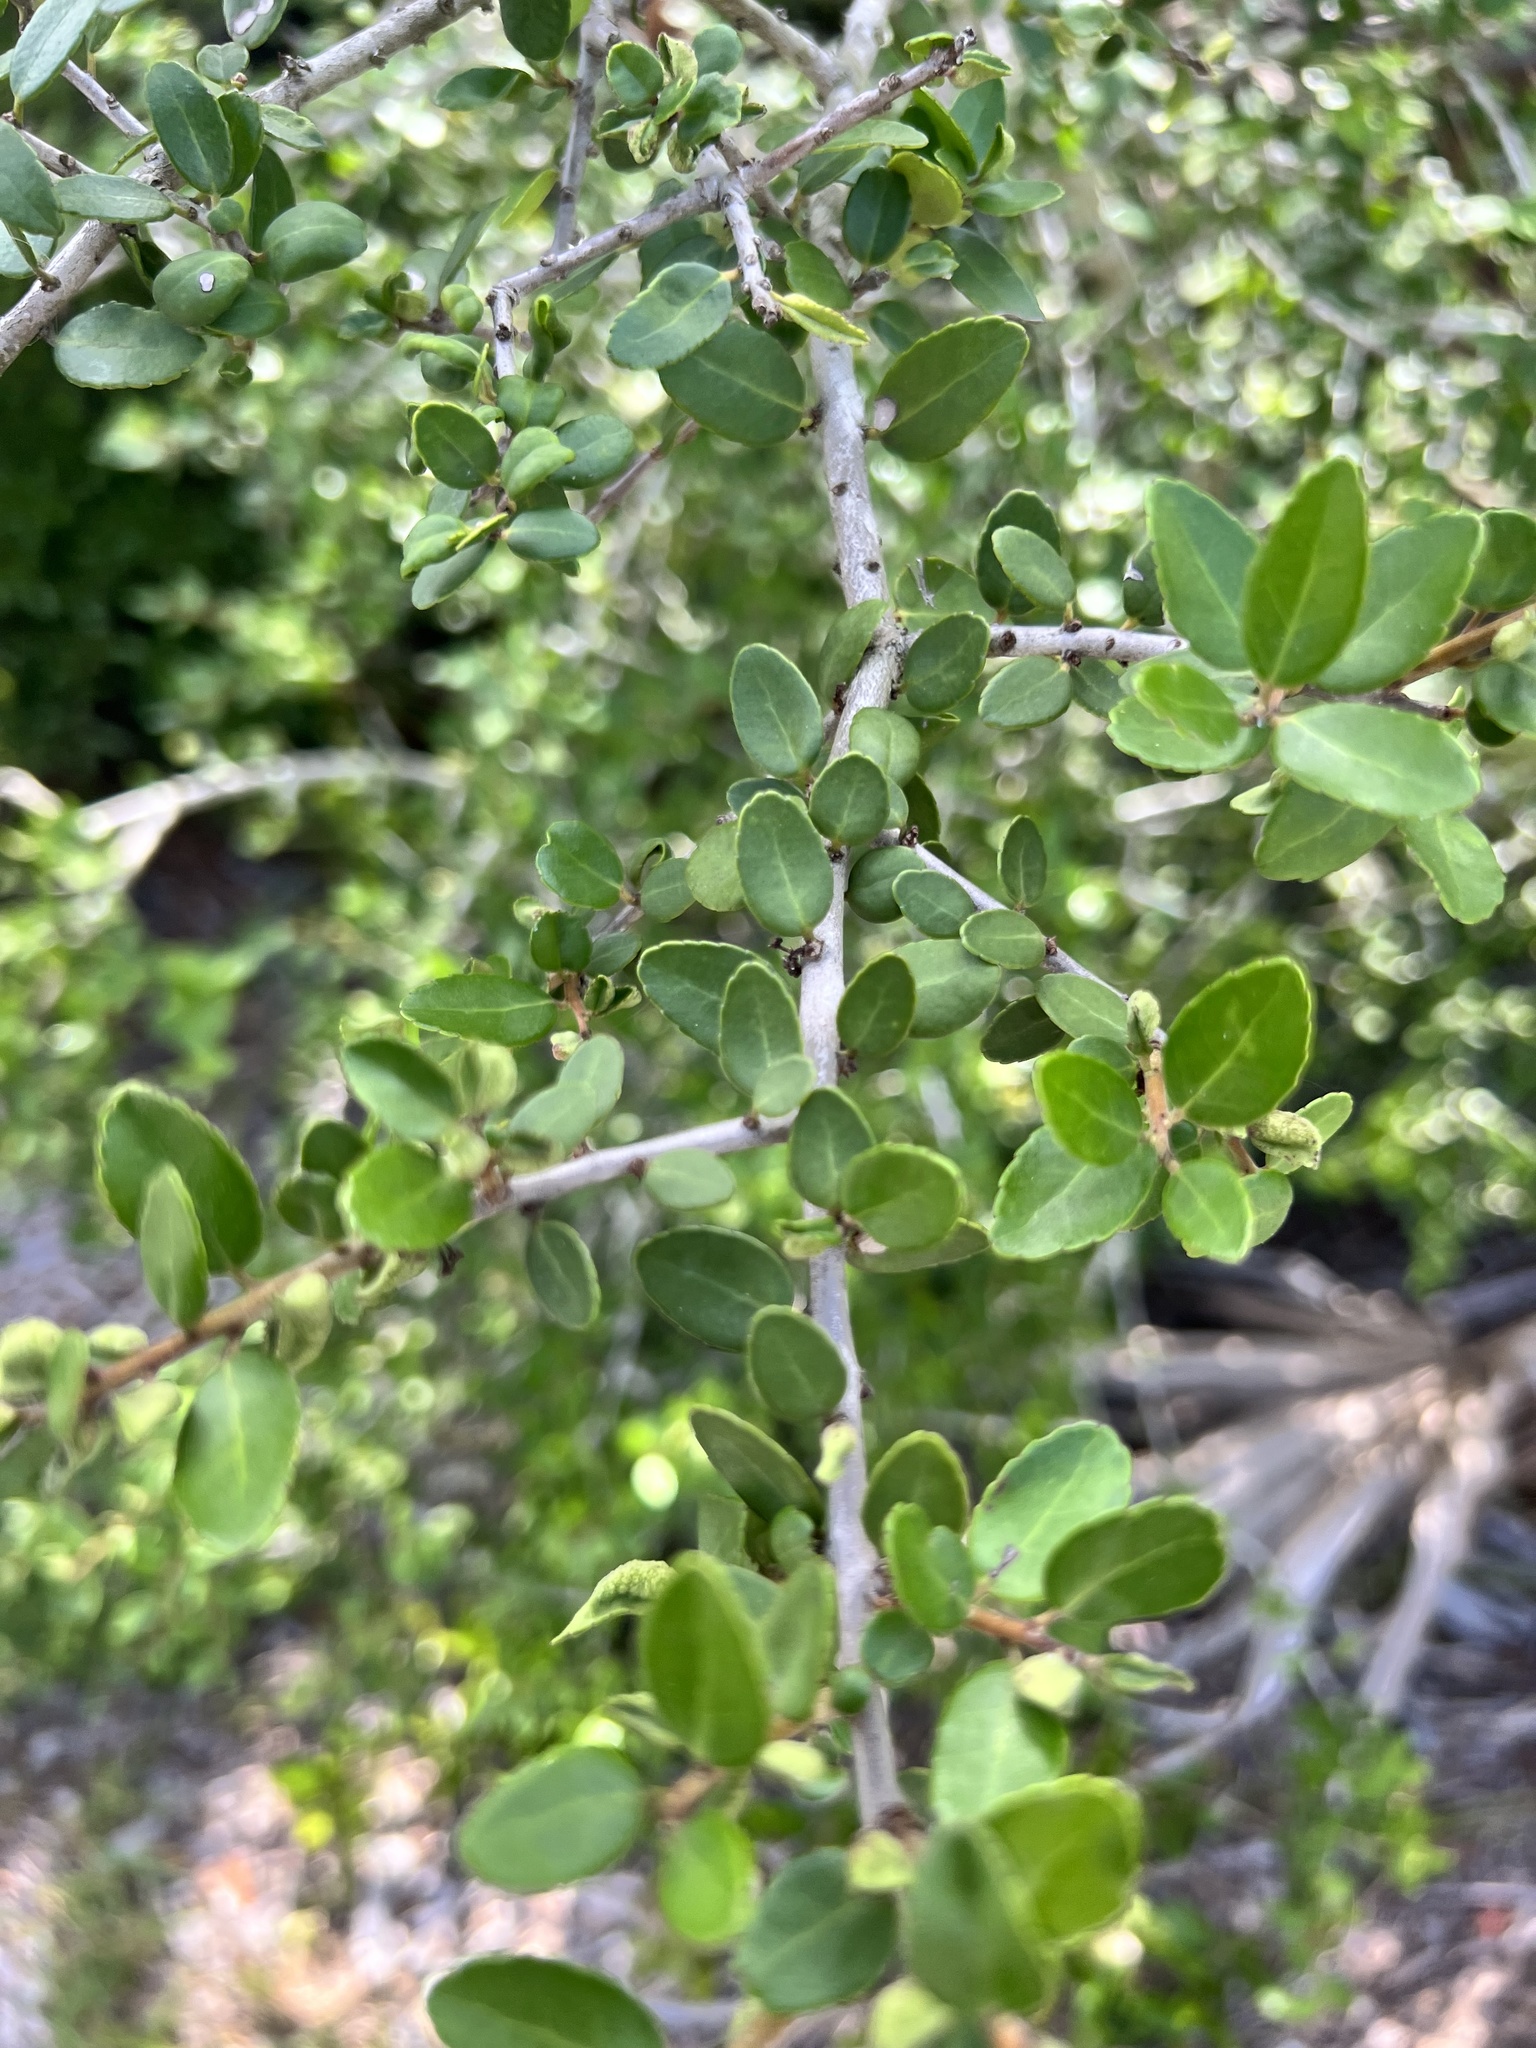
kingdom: Plantae
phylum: Tracheophyta
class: Magnoliopsida
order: Aquifoliales
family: Aquifoliaceae
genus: Ilex
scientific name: Ilex vomitoria
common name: Yaupon holly
